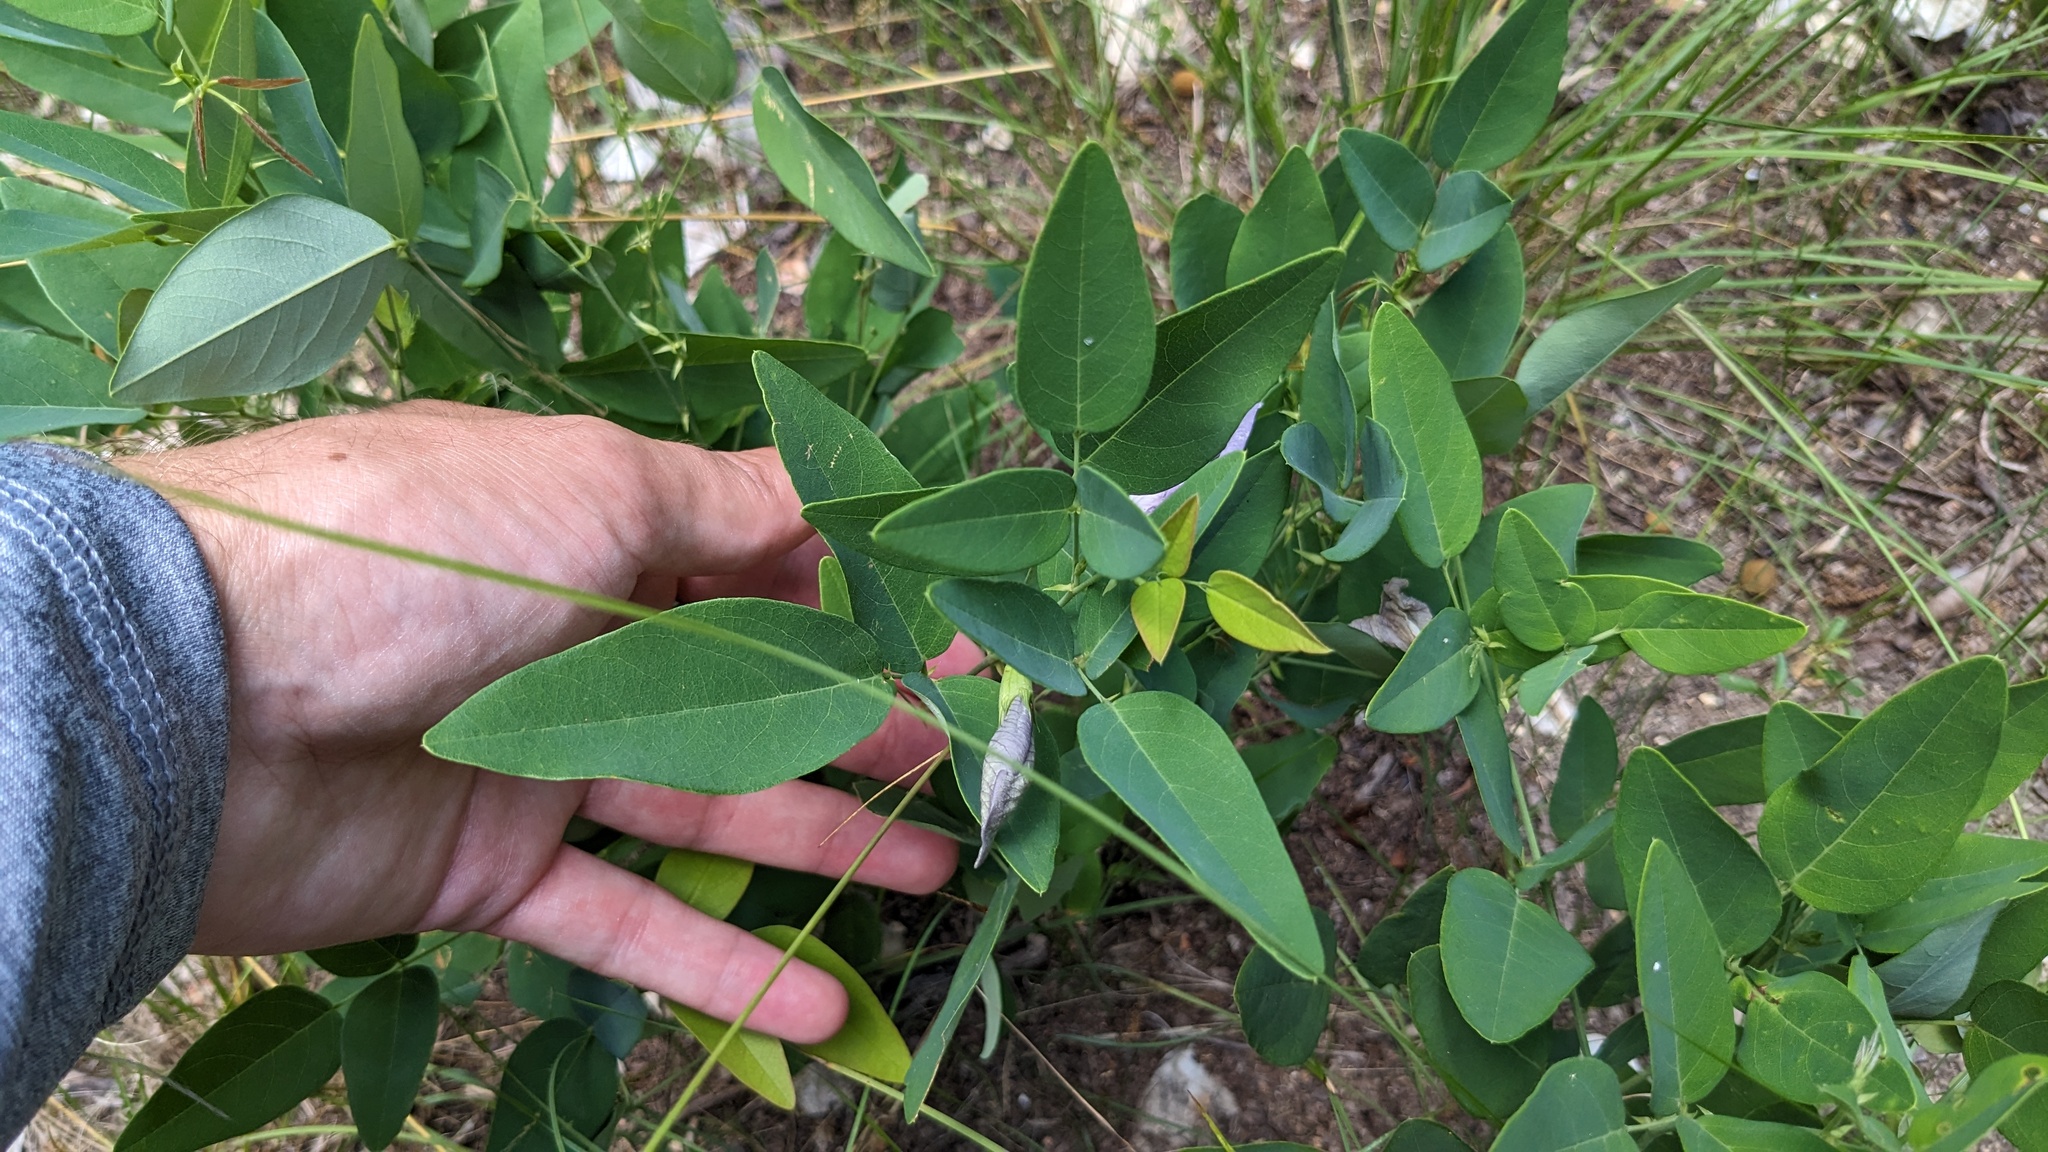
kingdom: Plantae
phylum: Tracheophyta
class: Magnoliopsida
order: Fabales
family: Fabaceae
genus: Clitoria
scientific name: Clitoria mariana
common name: Butterfly-pea
